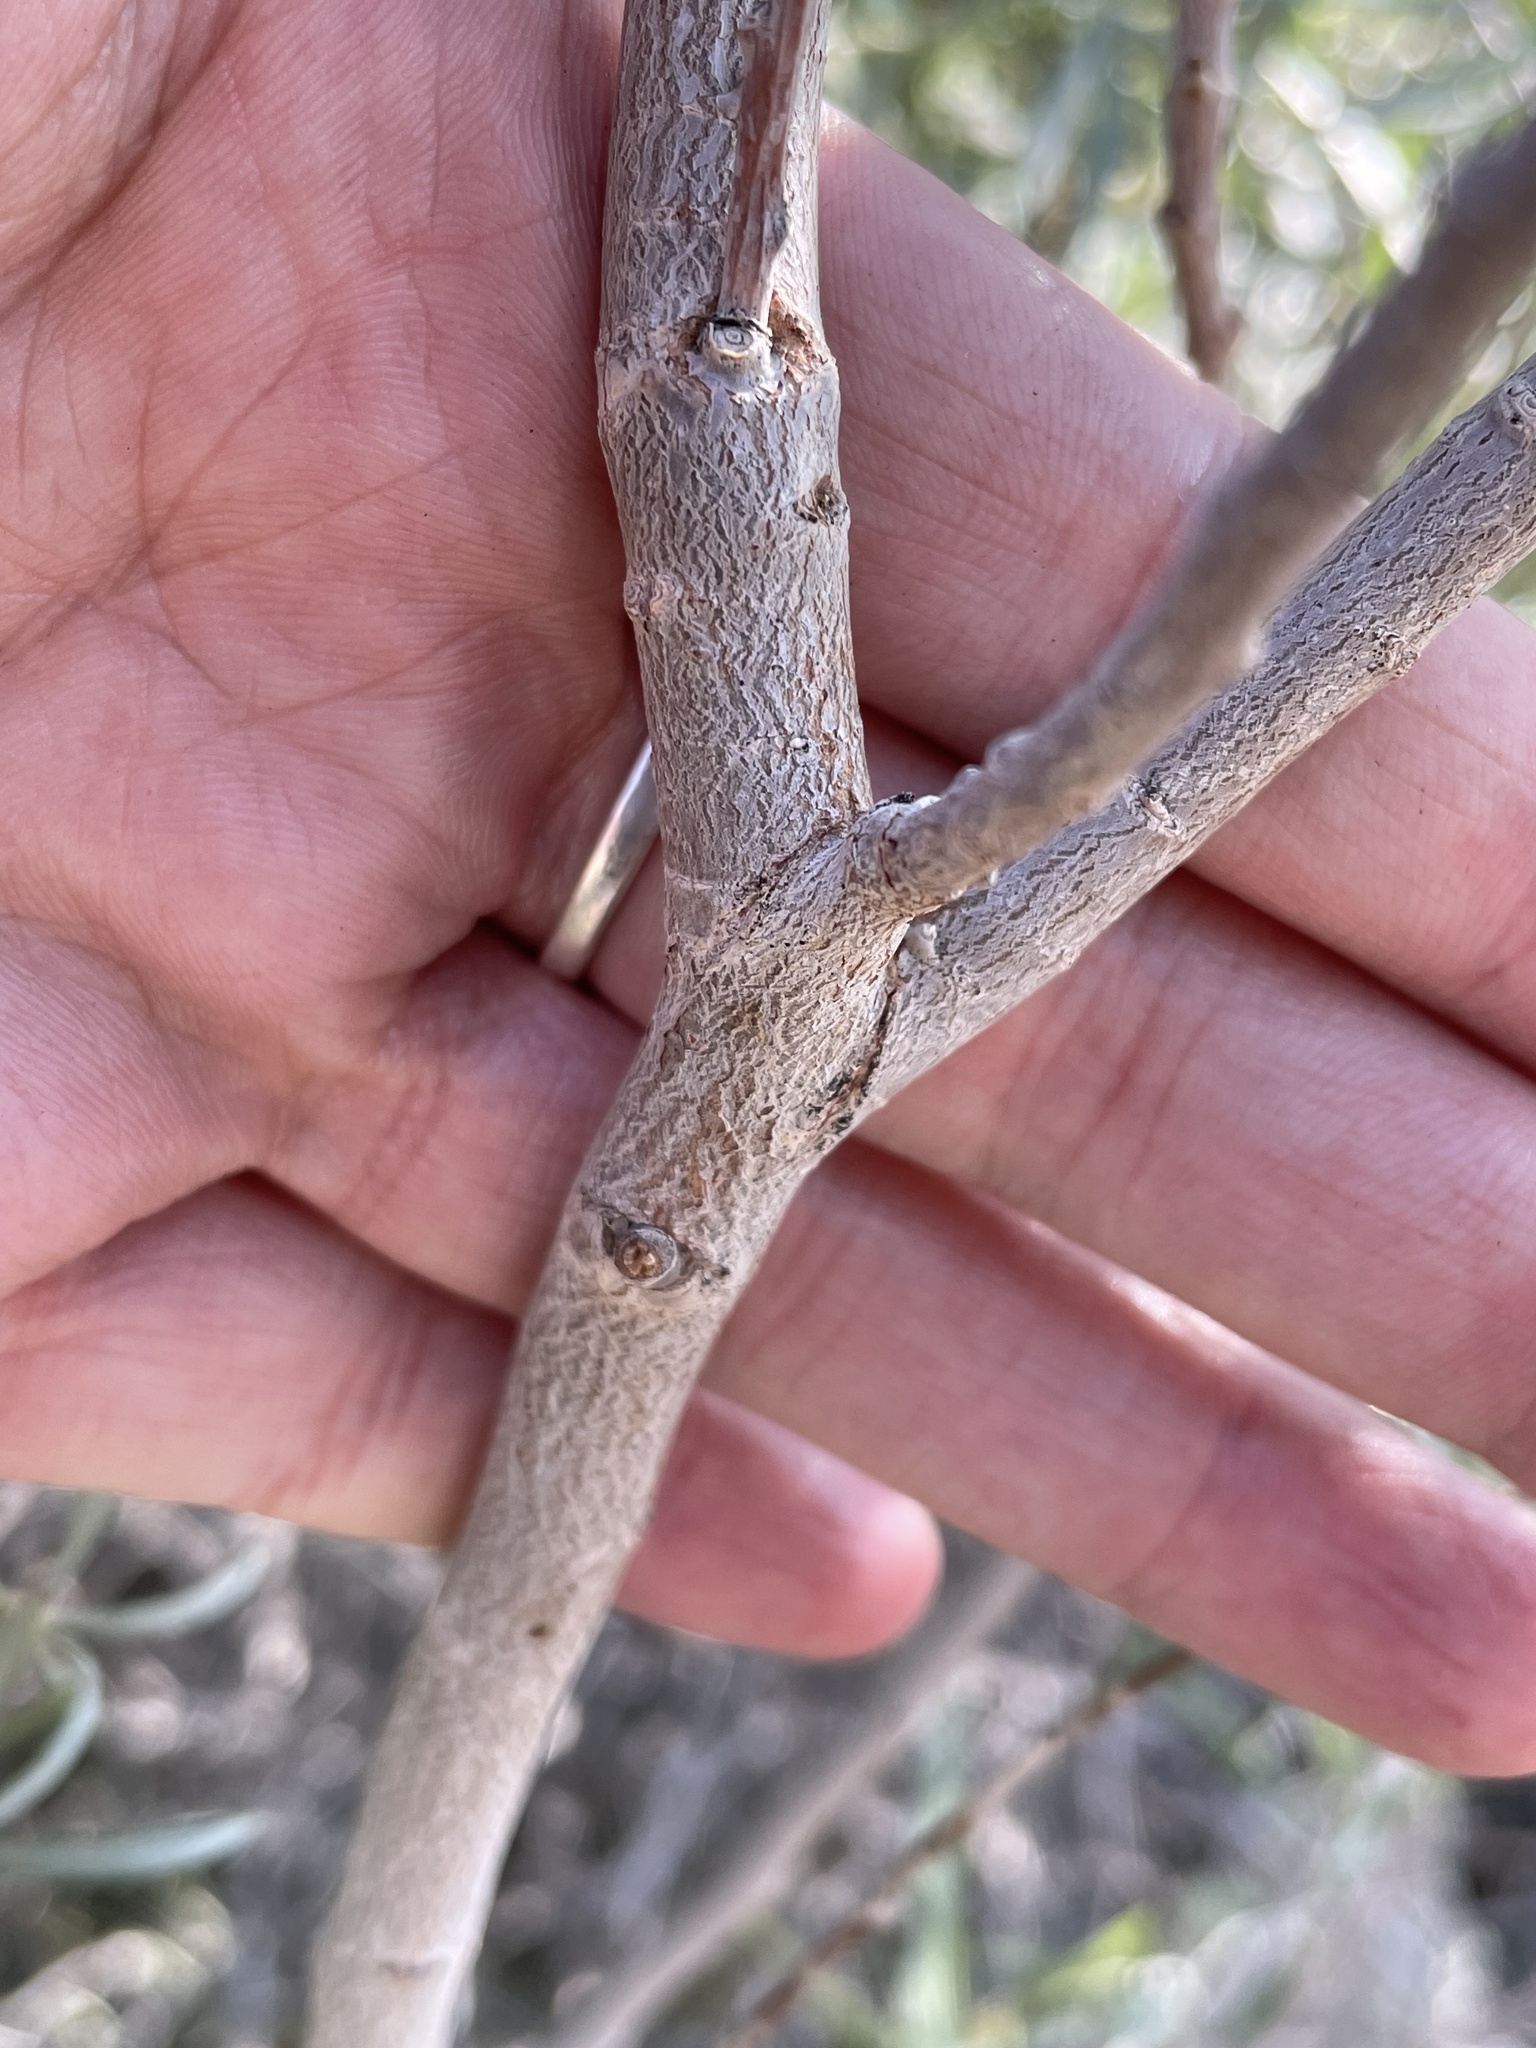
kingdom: Plantae
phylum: Tracheophyta
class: Magnoliopsida
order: Malpighiales
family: Salicaceae
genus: Salix
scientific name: Salix exigua
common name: Coyote willow
